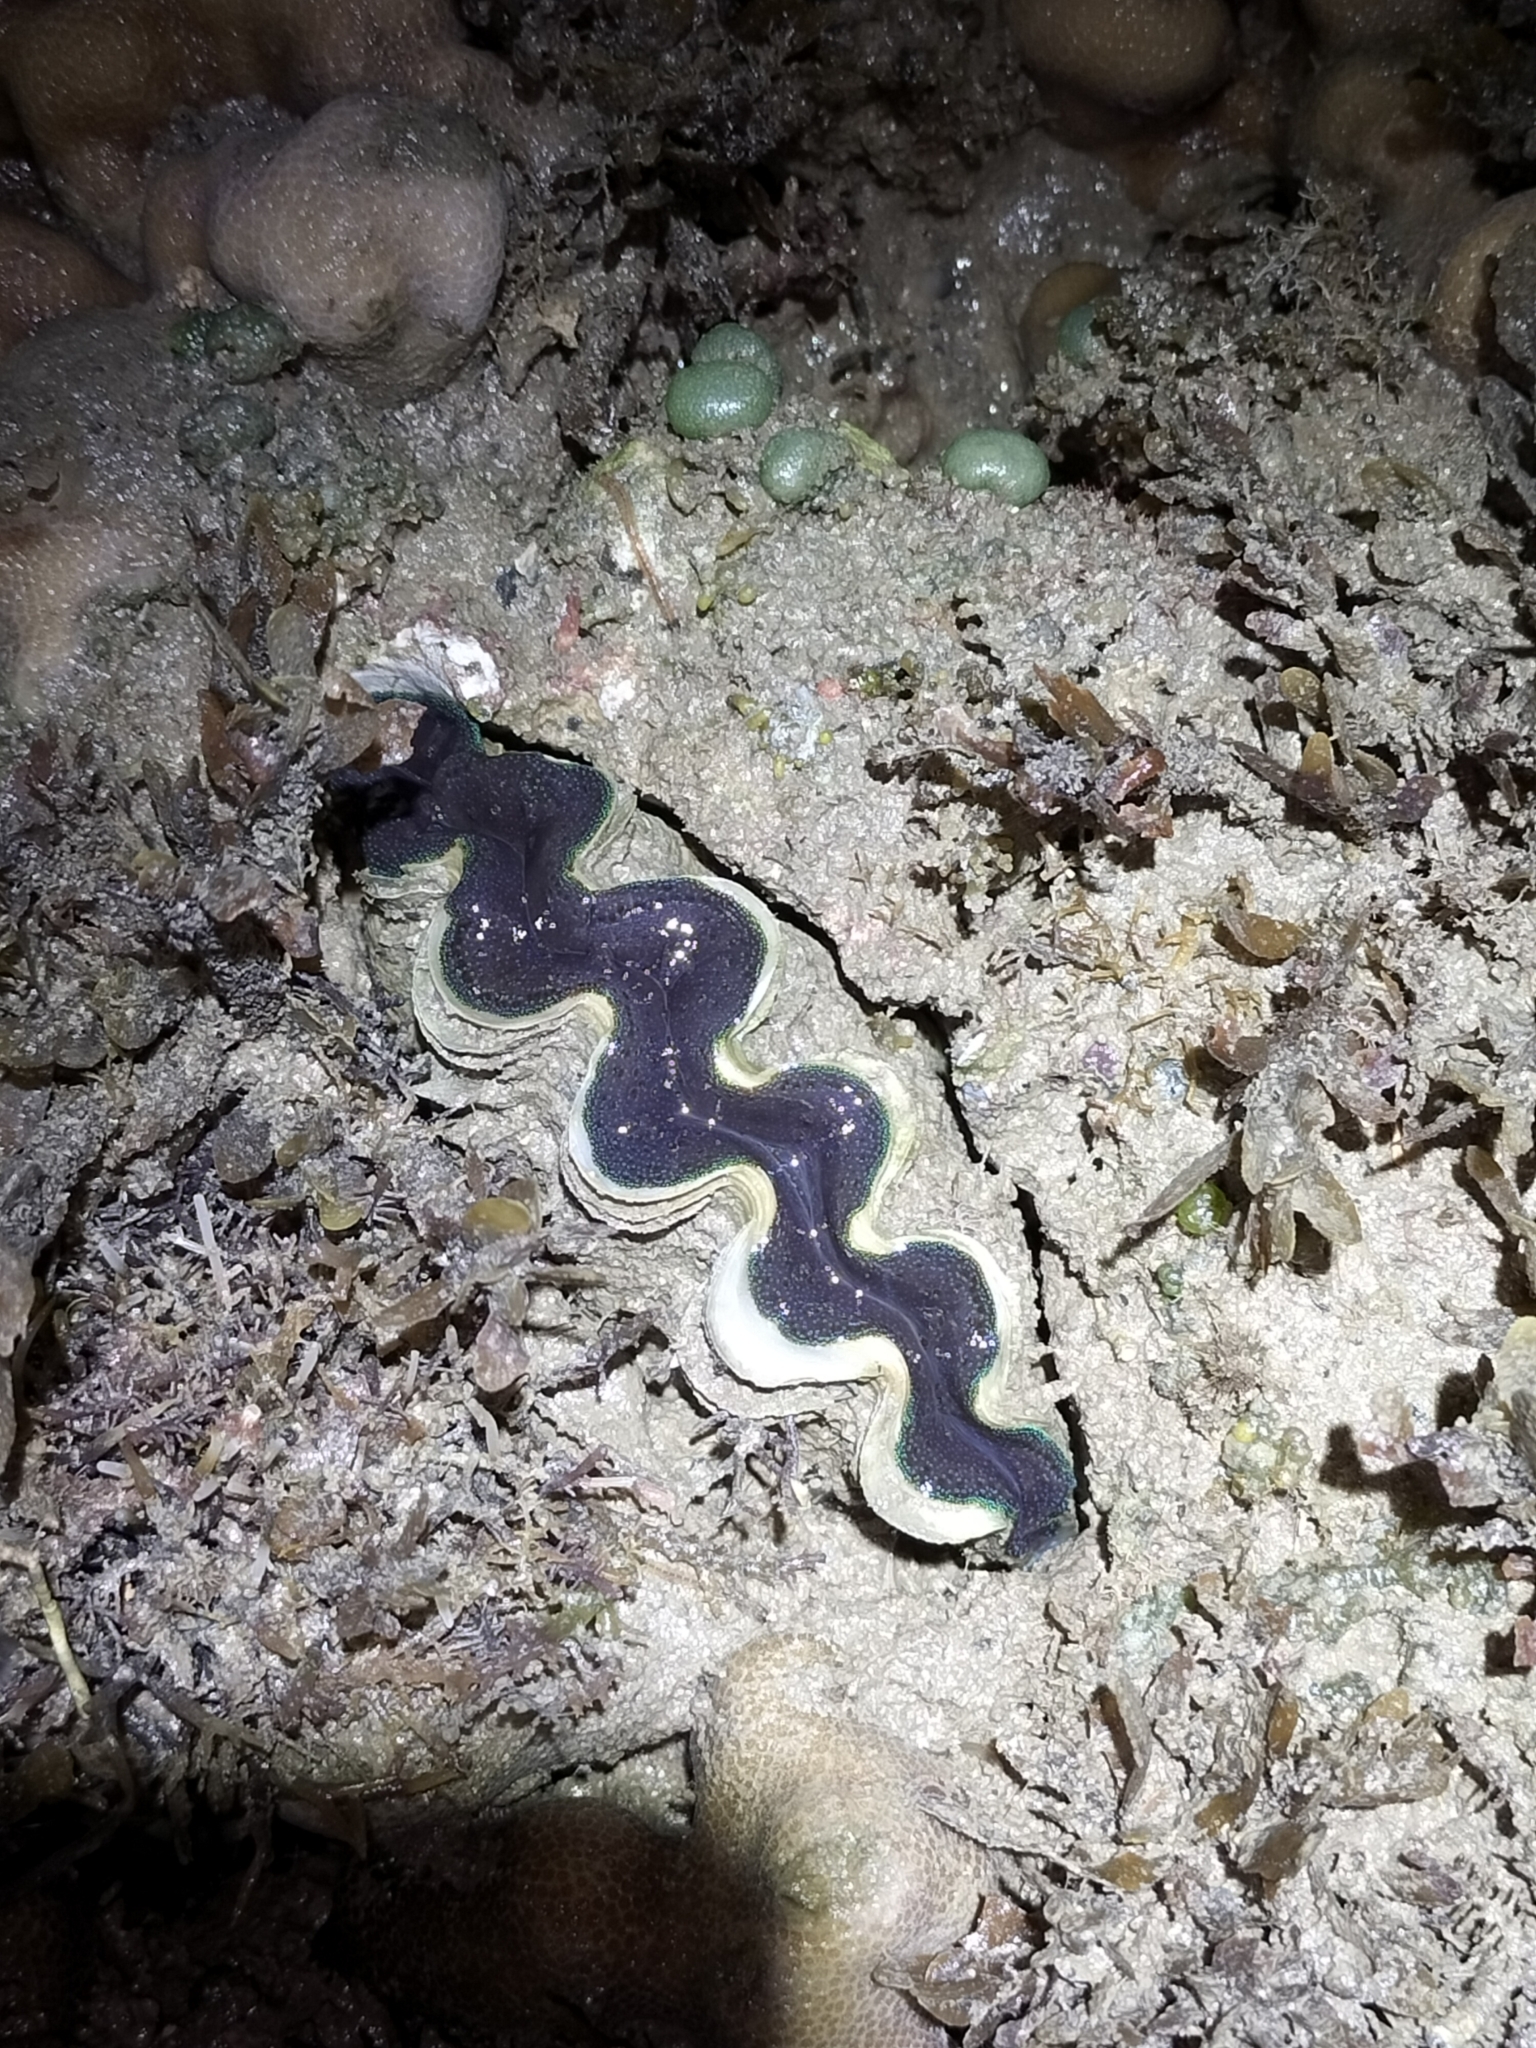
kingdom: Animalia
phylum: Mollusca
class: Bivalvia
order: Cardiida
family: Cardiidae
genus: Tridacna
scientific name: Tridacna crocea
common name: Boring clam
